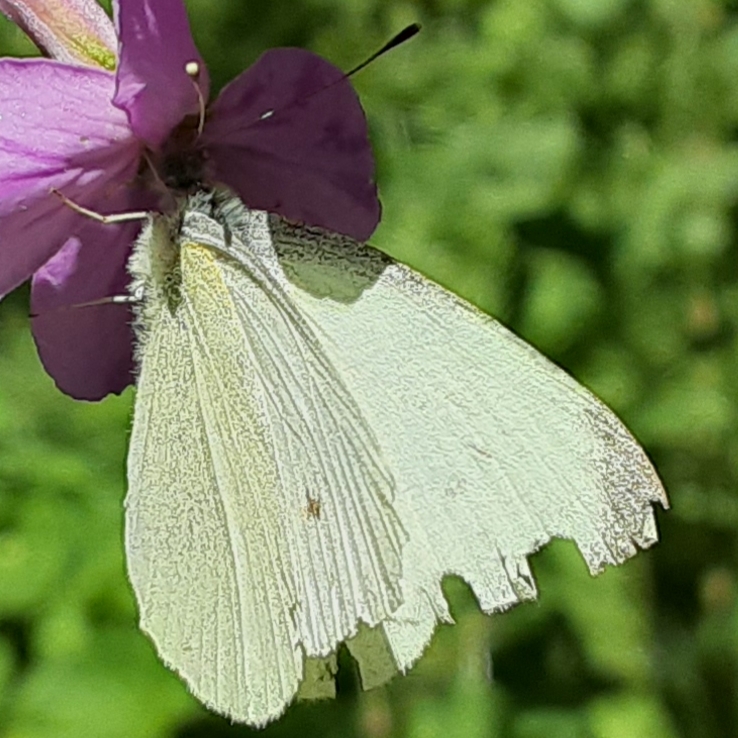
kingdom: Animalia
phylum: Arthropoda
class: Insecta
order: Lepidoptera
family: Pieridae
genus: Pieris
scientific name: Pieris rapae
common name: Small white
